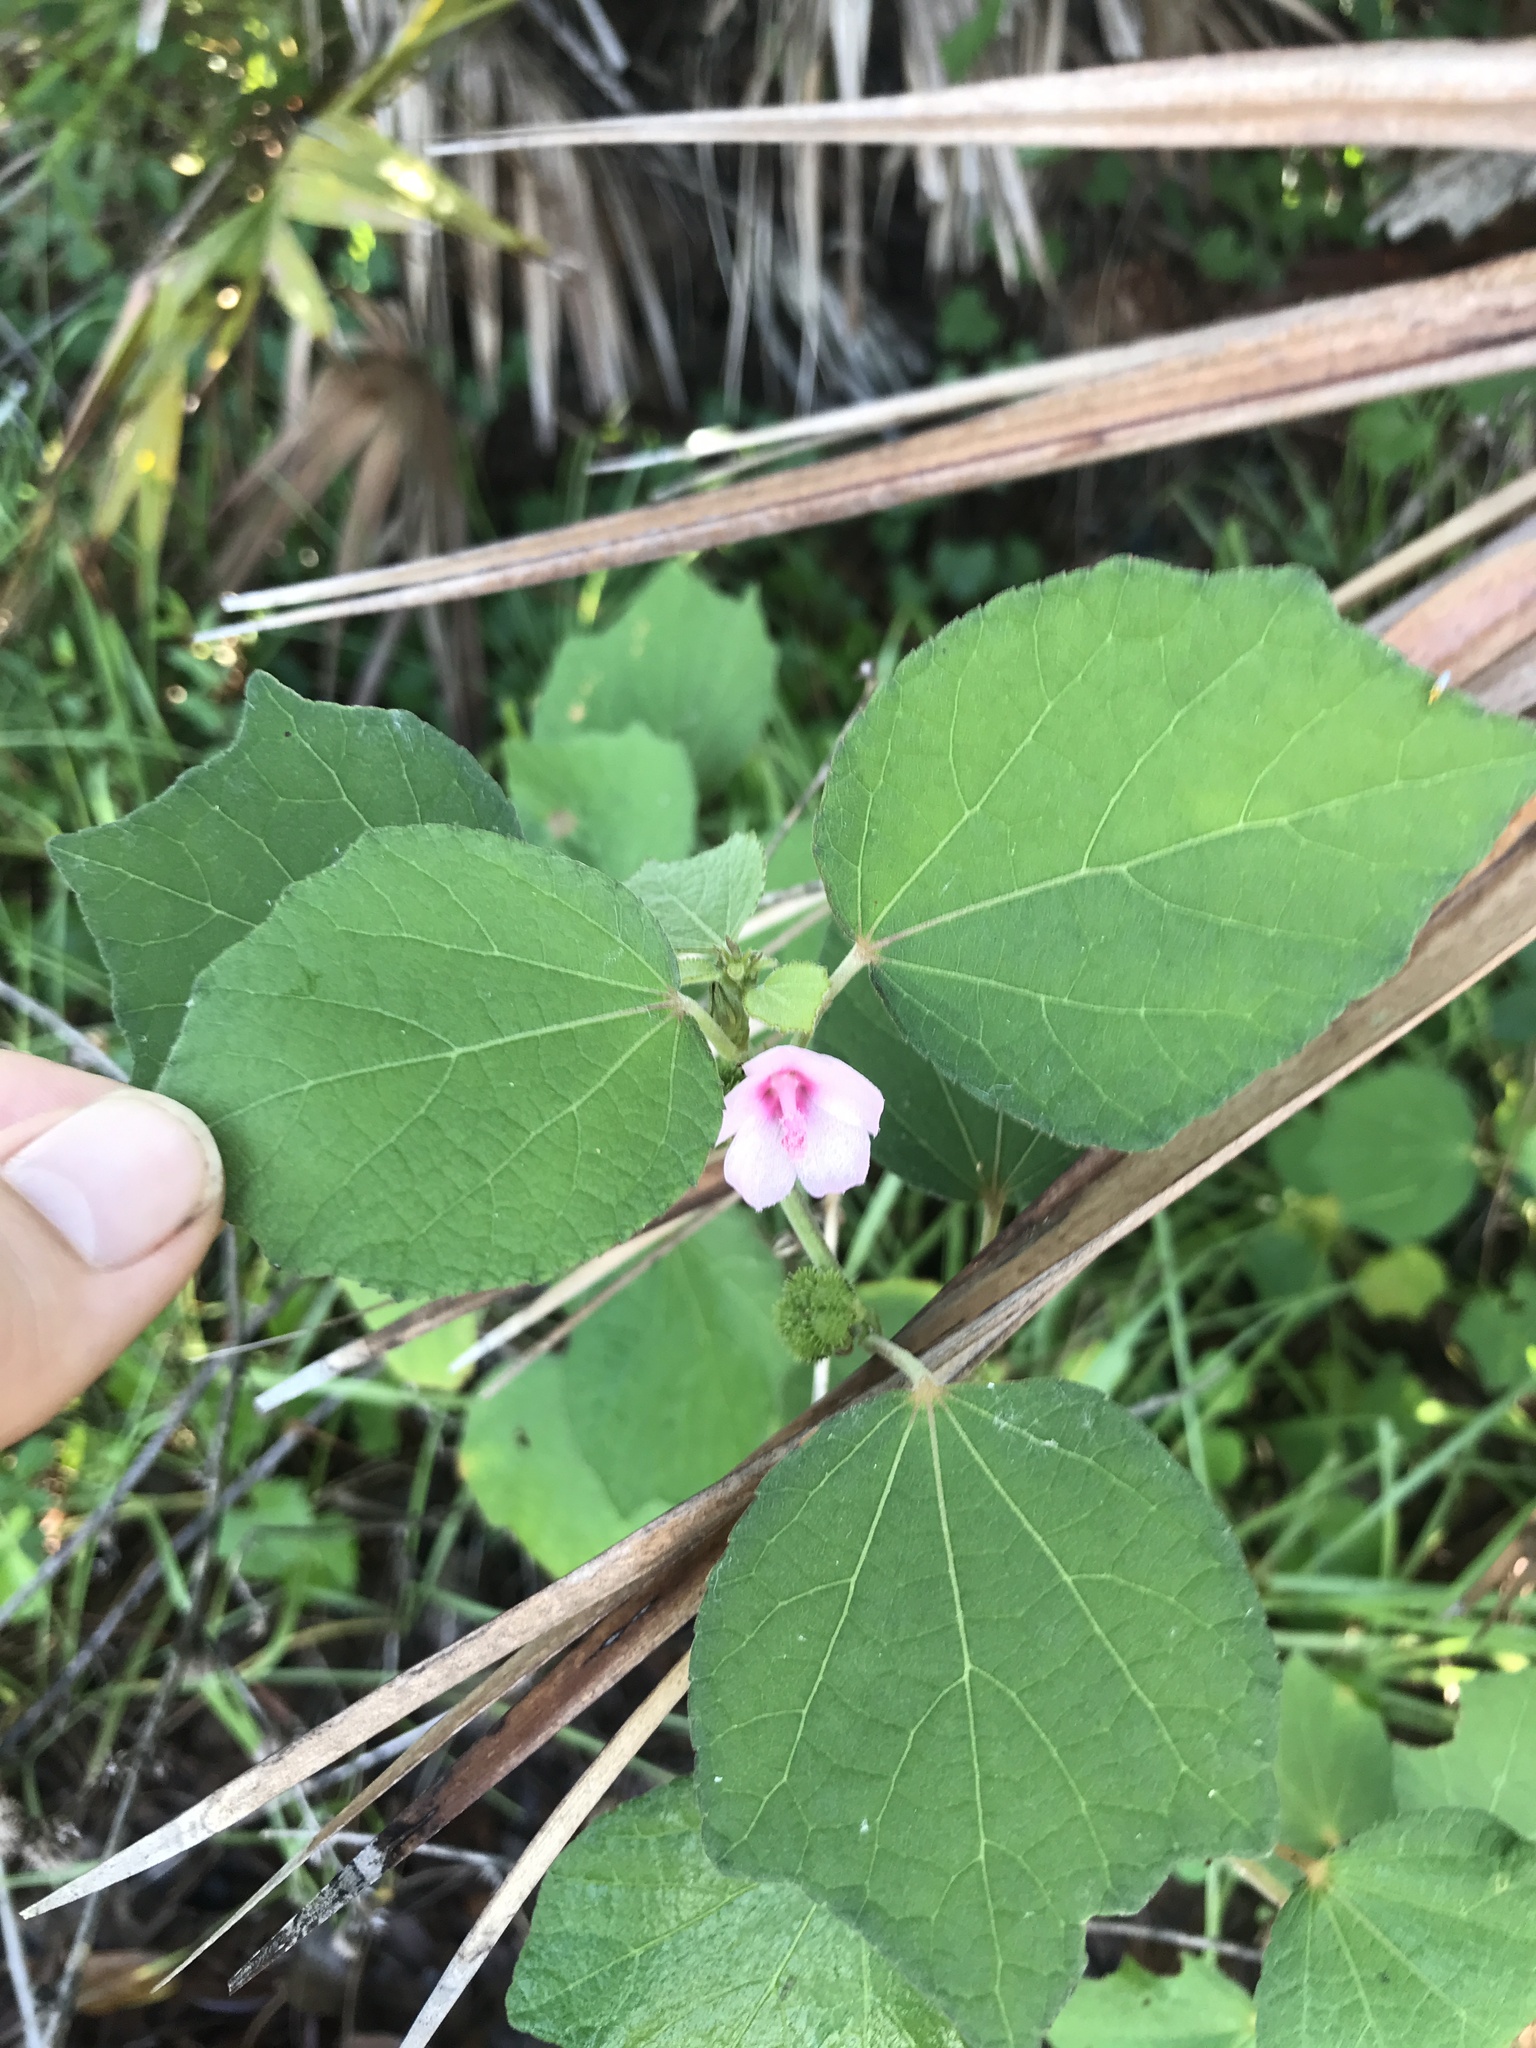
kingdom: Plantae
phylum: Tracheophyta
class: Magnoliopsida
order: Malvales
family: Malvaceae
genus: Urena
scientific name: Urena lobata
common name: Caesarweed
